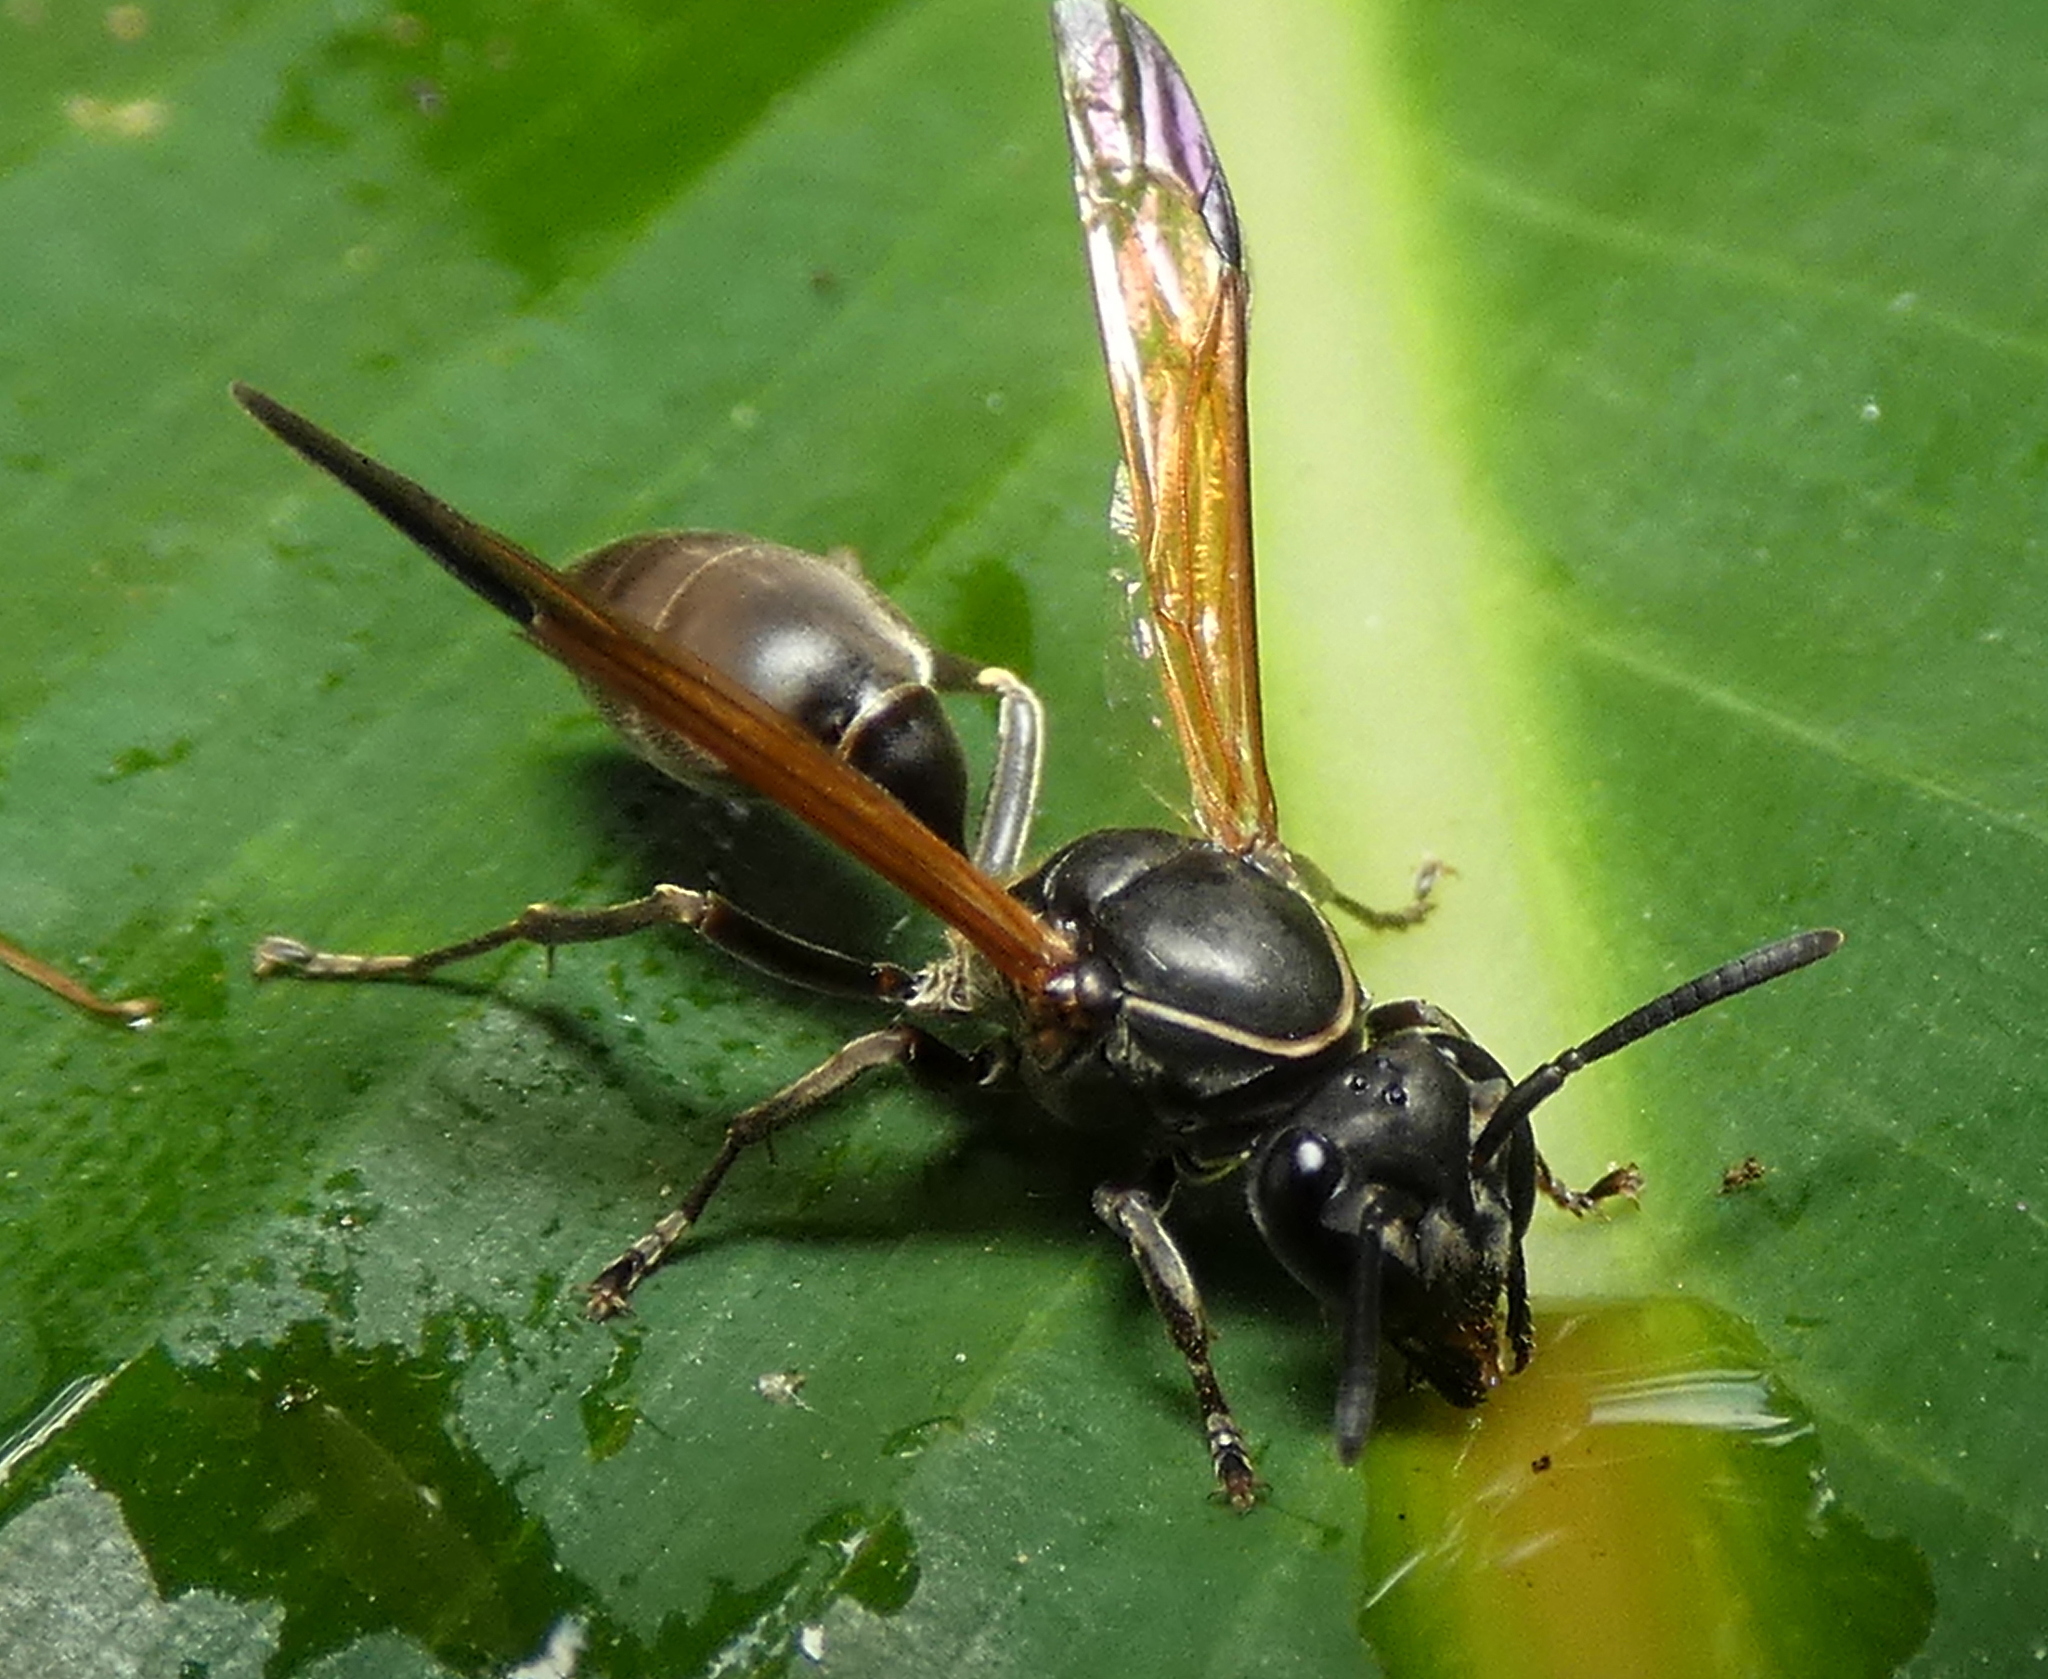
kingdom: Animalia
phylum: Arthropoda
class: Insecta
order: Hymenoptera
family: Eumenidae
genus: Polybia
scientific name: Polybia rejecta
